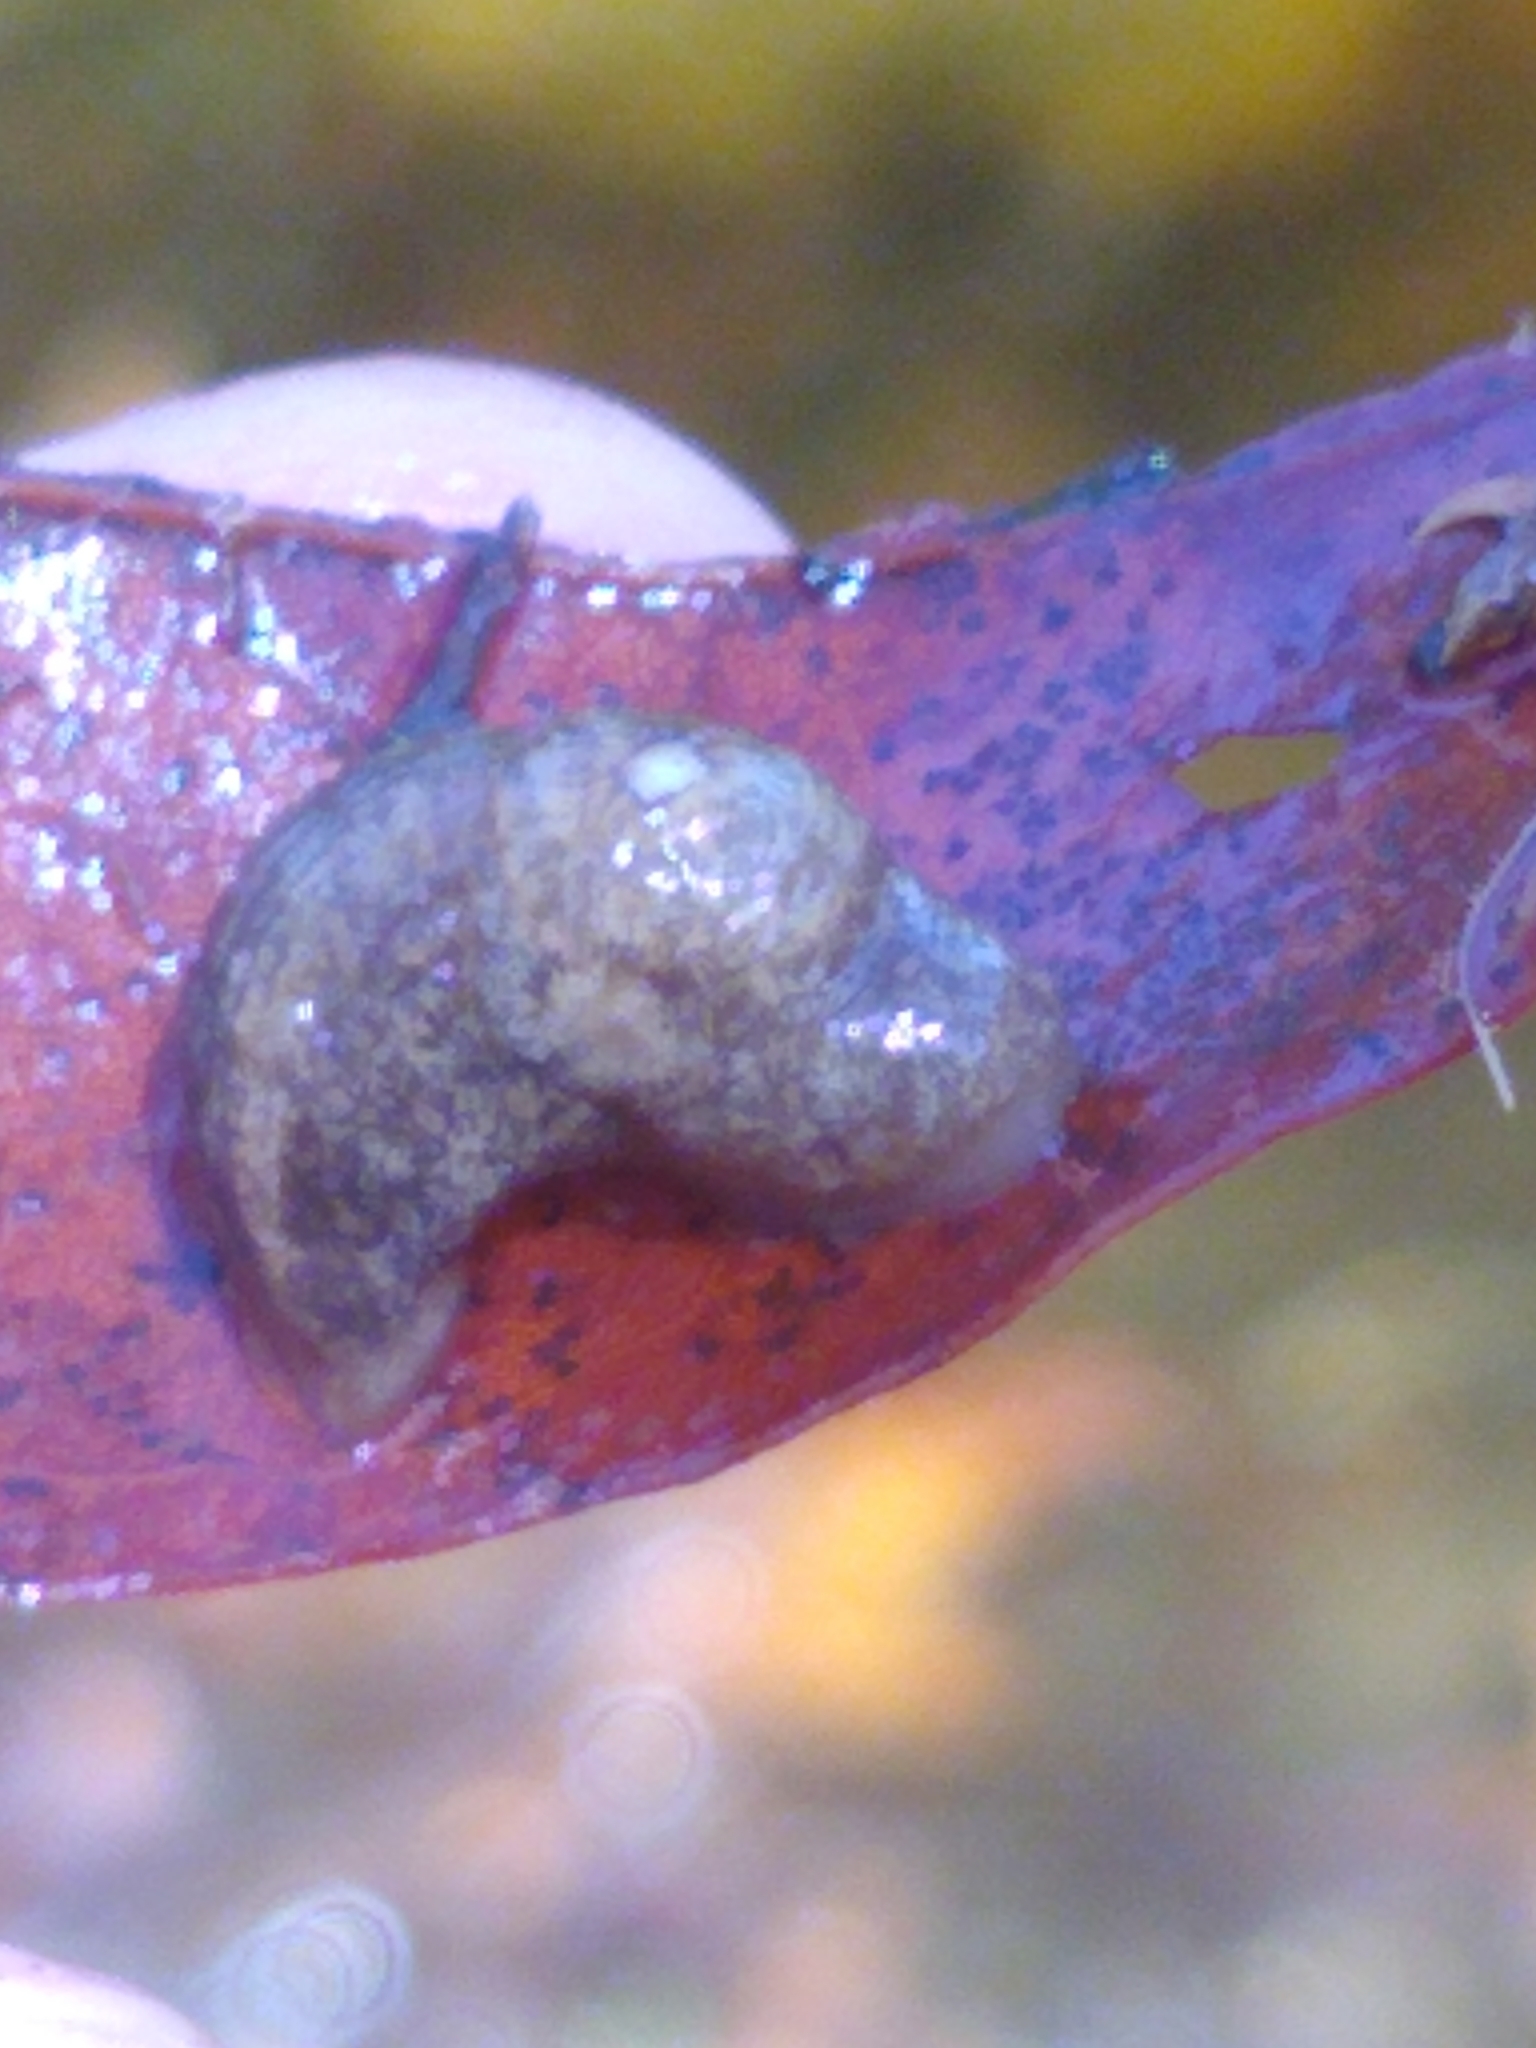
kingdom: Animalia
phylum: Mollusca
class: Gastropoda
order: Stylommatophora
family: Agriolimacidae
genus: Deroceras
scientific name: Deroceras reticulatum
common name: Gray field slug
